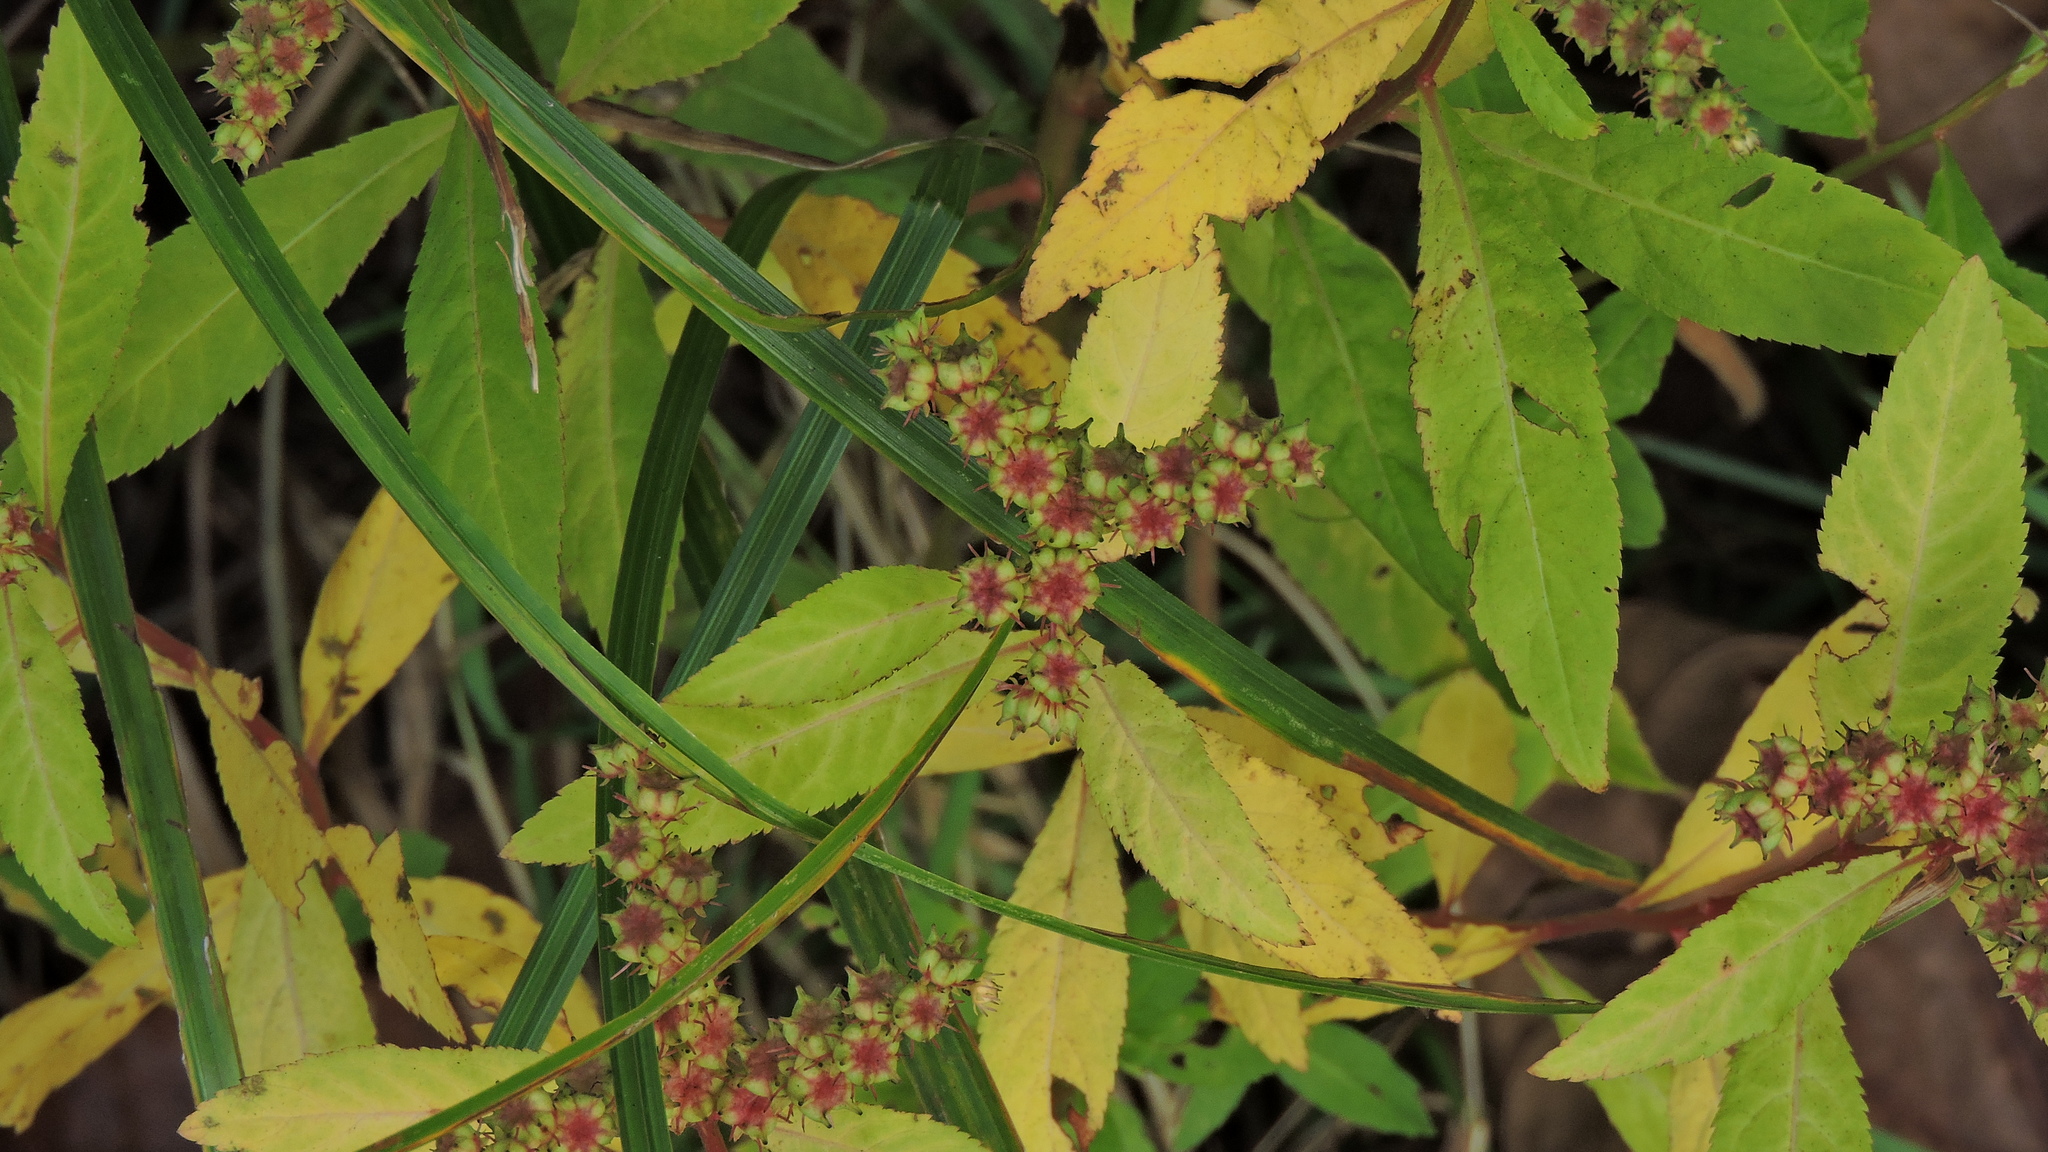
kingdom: Plantae
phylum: Tracheophyta
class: Magnoliopsida
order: Saxifragales
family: Penthoraceae
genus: Penthorum
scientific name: Penthorum sedoides
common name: Ditch stonecrop
